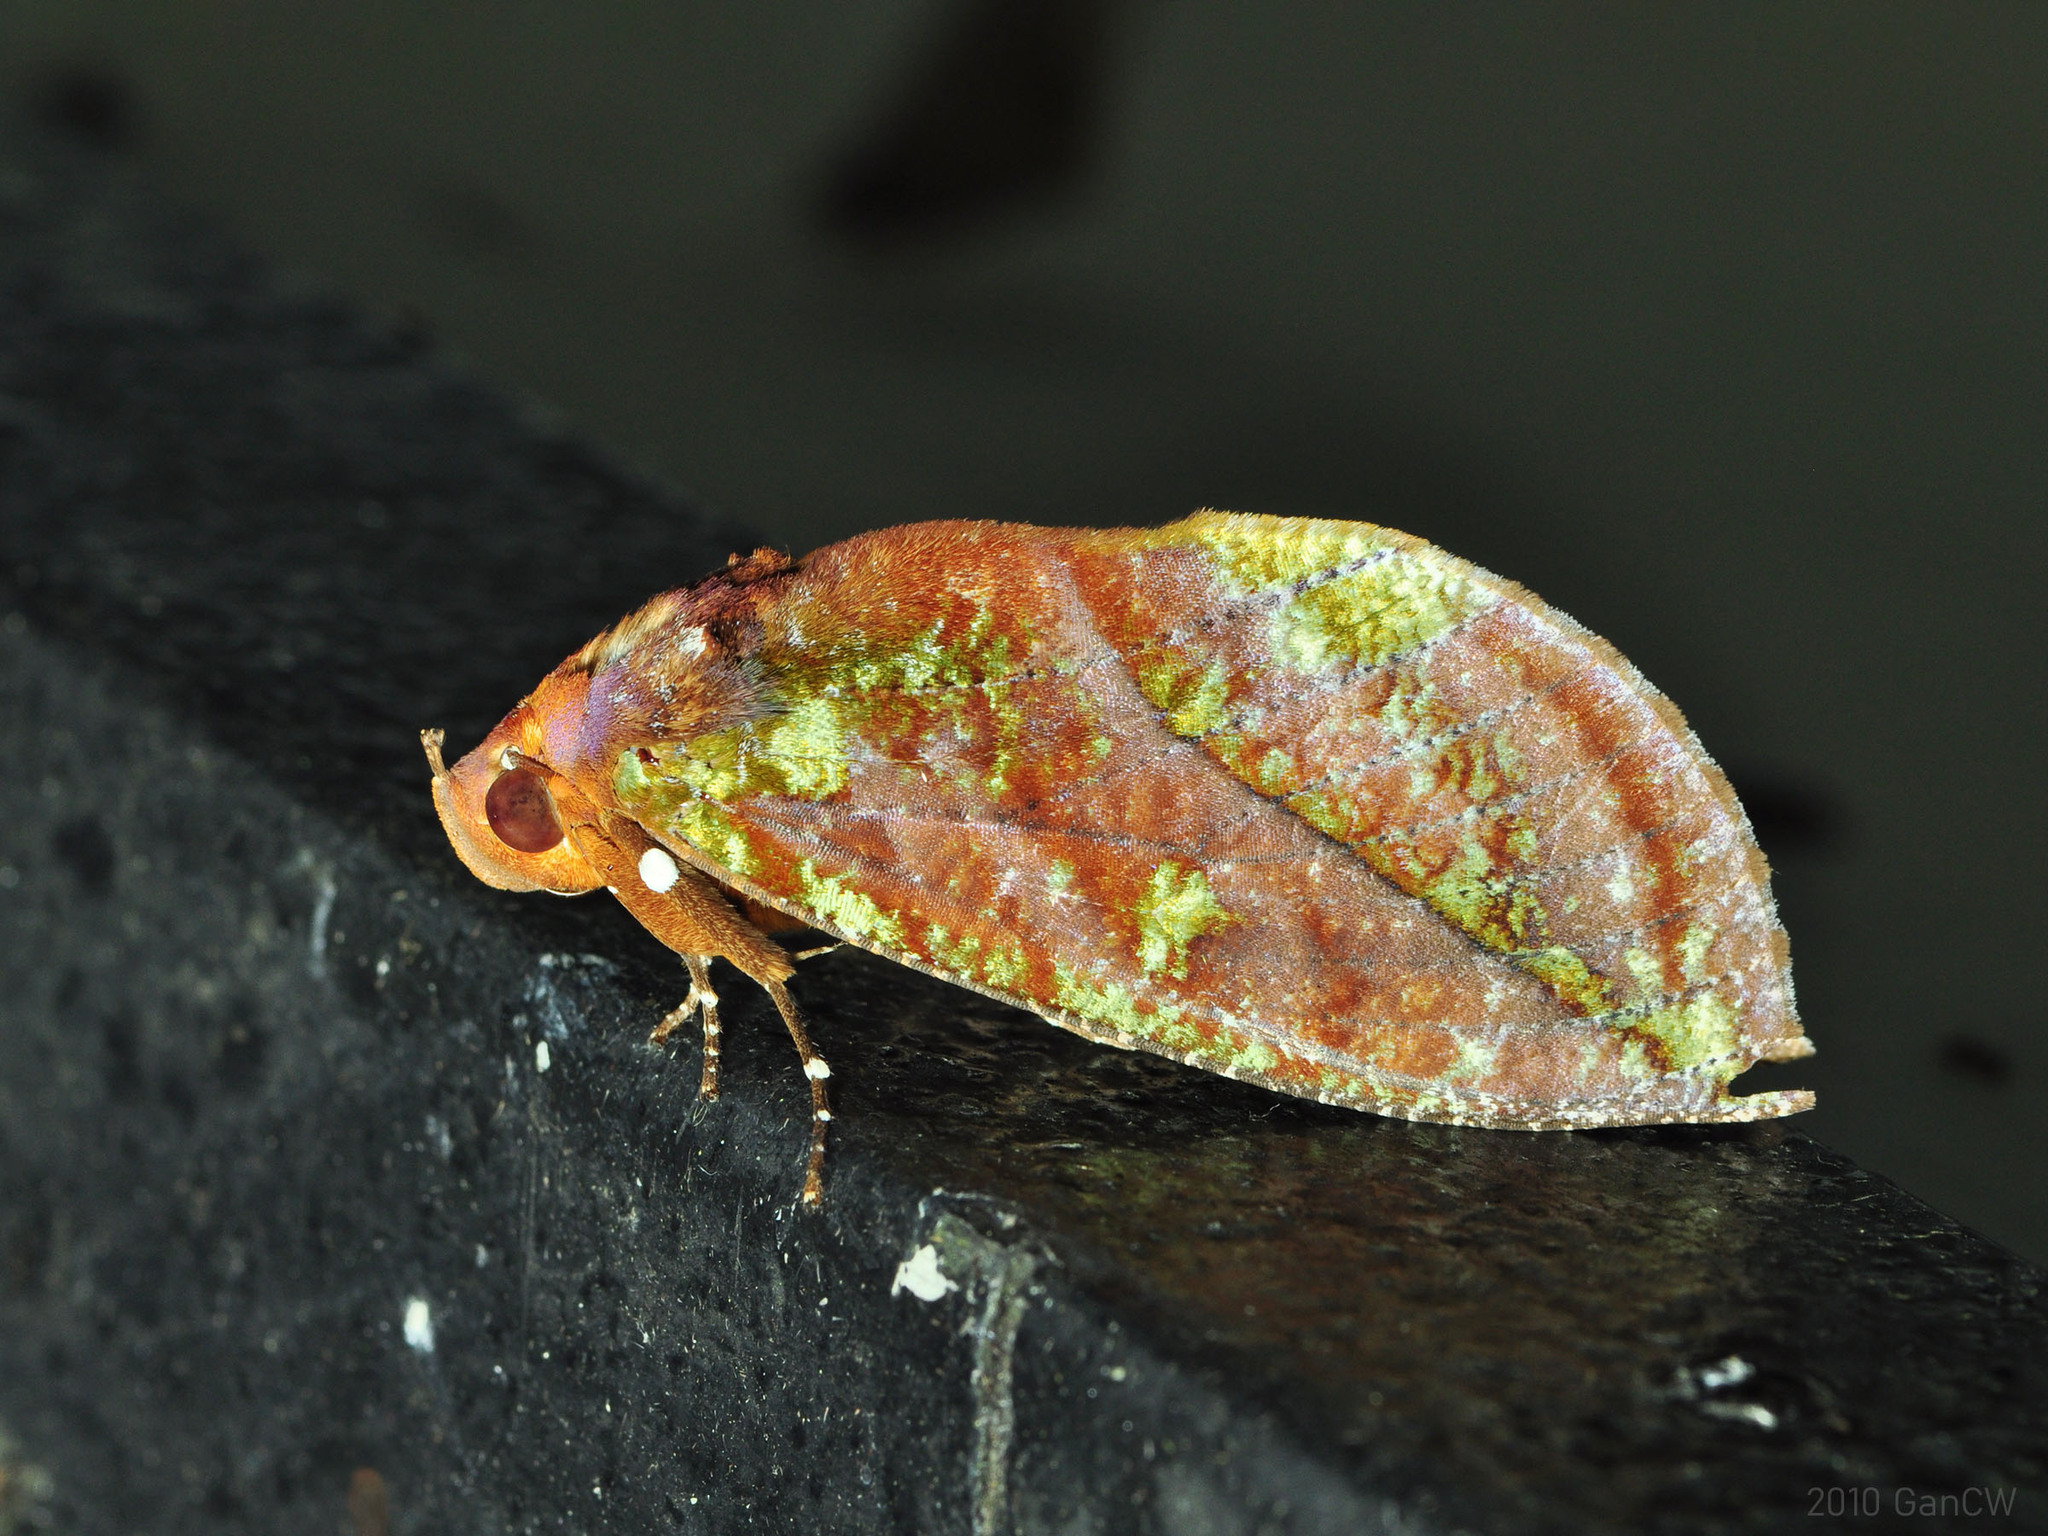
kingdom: Animalia
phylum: Arthropoda
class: Insecta
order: Lepidoptera
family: Erebidae
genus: Eudocima
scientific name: Eudocima mionopastea
